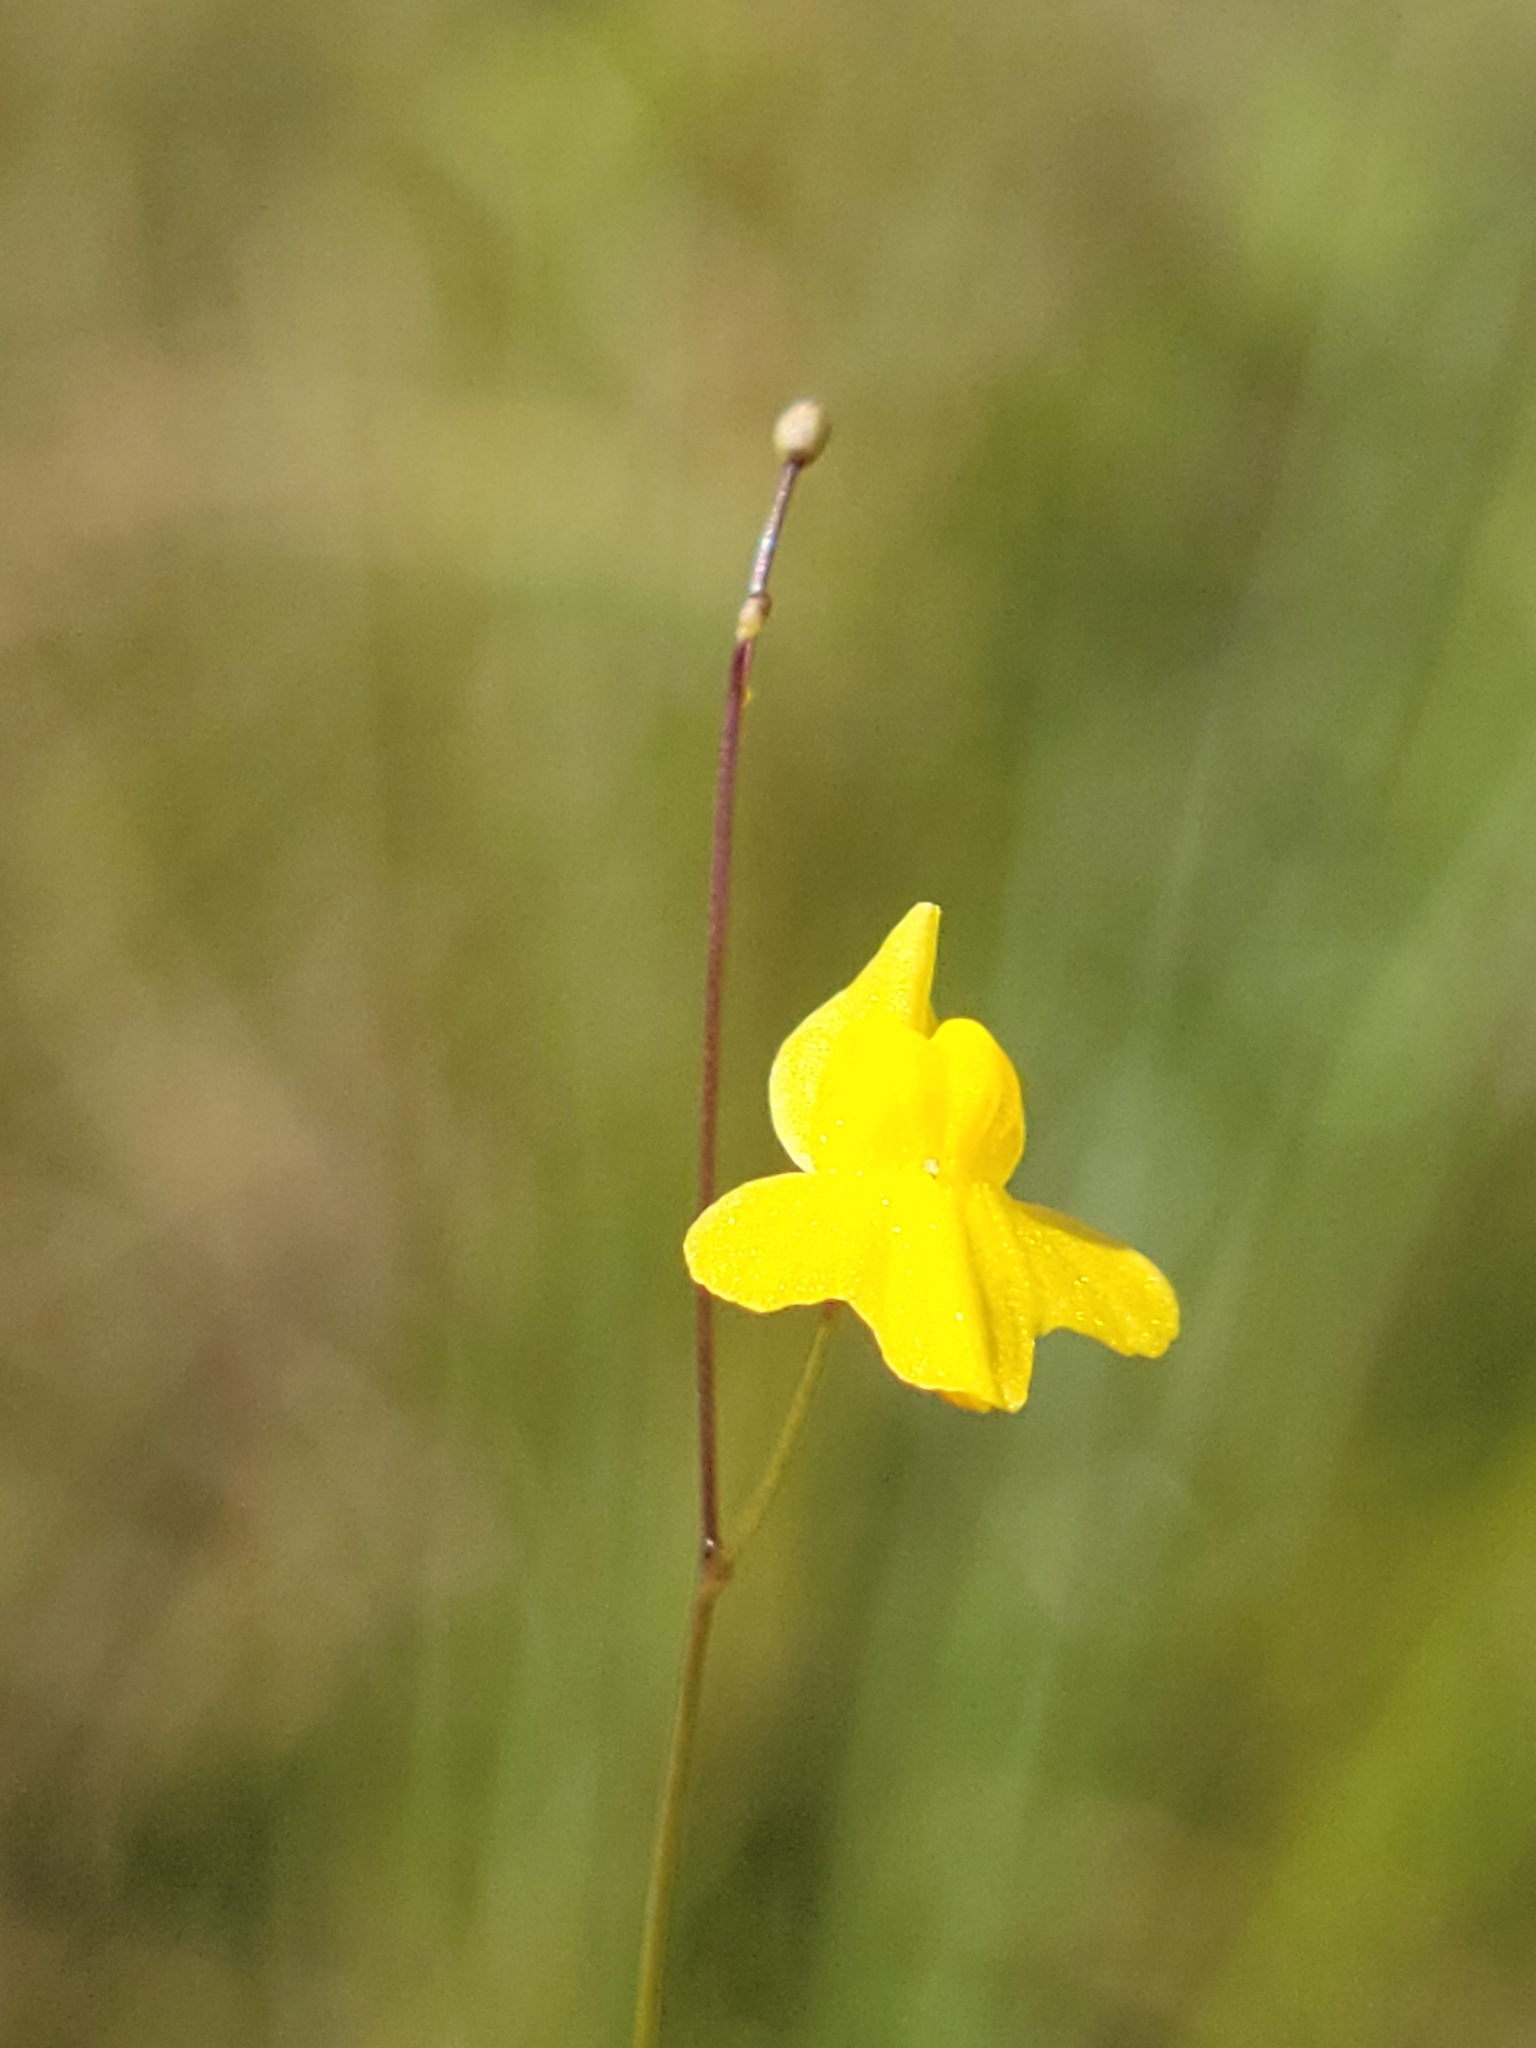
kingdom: Plantae
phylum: Tracheophyta
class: Magnoliopsida
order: Lamiales
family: Lentibulariaceae
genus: Utricularia
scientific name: Utricularia subulata
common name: Tiny bladderwort
